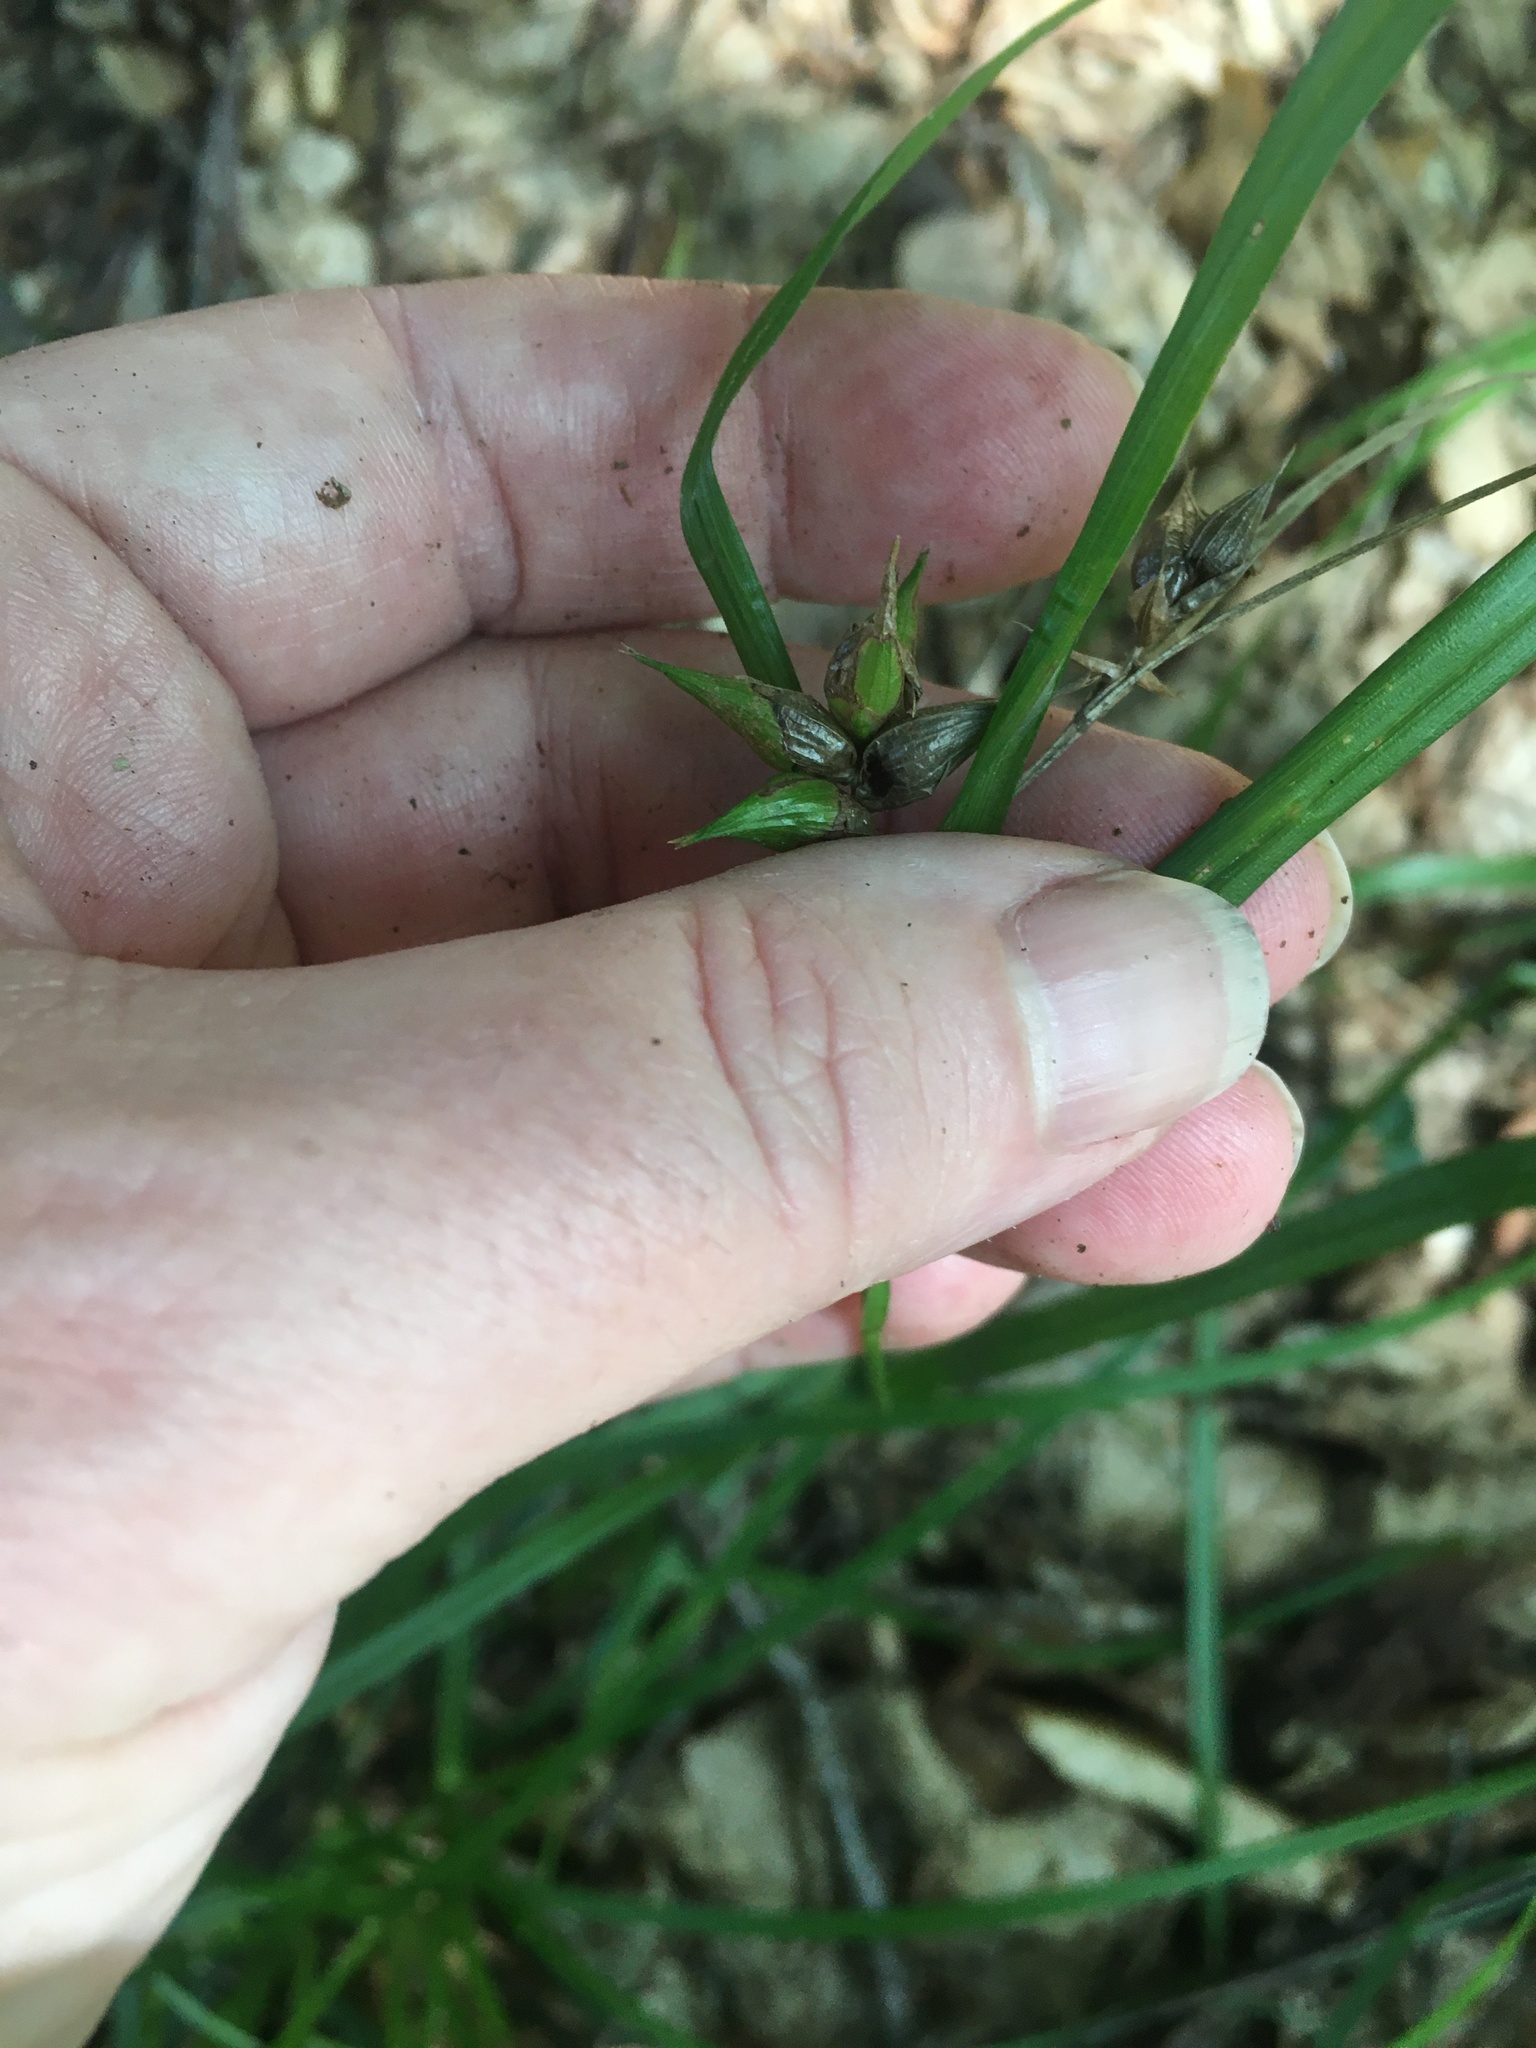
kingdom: Plantae
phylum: Tracheophyta
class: Liliopsida
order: Poales
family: Cyperaceae
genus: Carex
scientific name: Carex intumescens
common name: Greater bladder sedge
